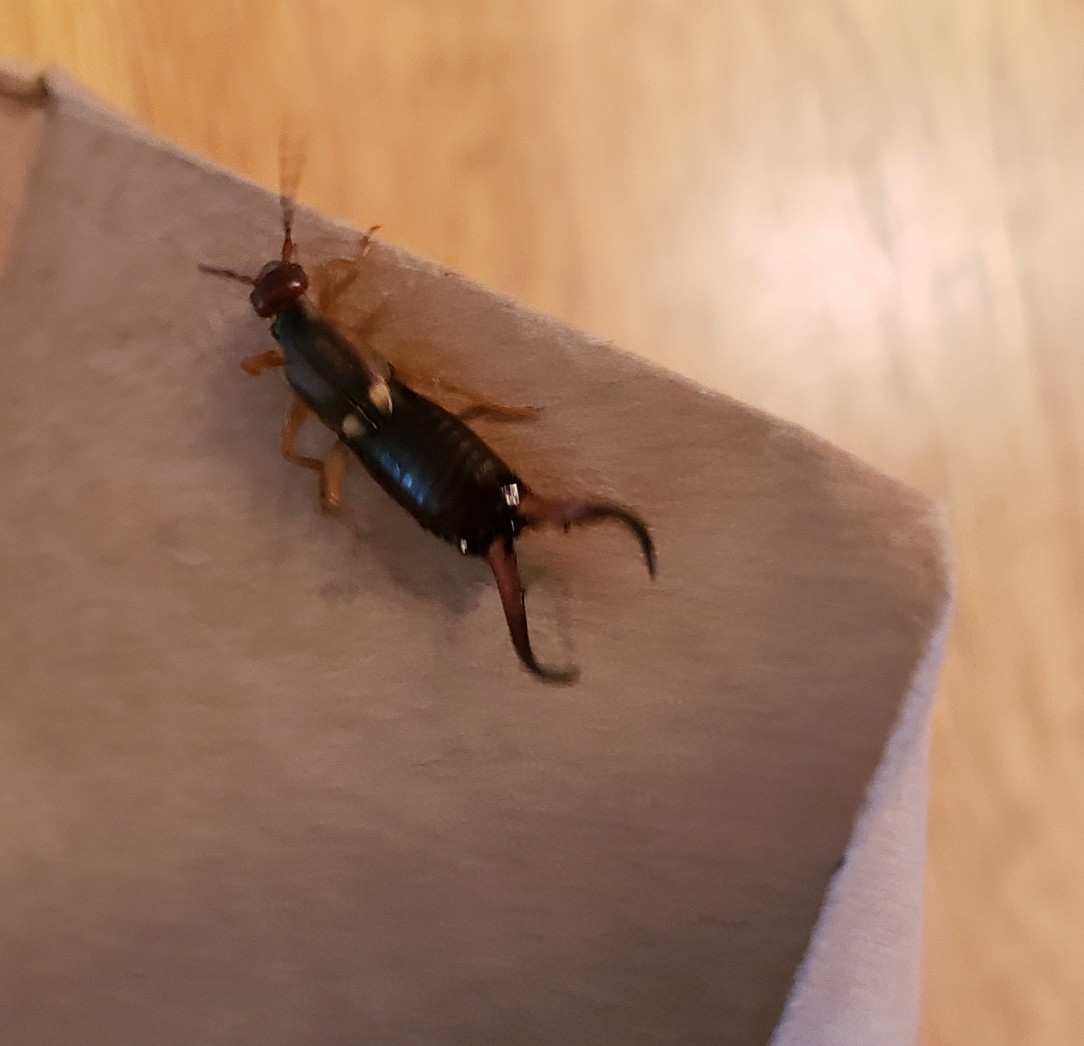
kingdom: Animalia
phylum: Arthropoda
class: Insecta
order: Dermaptera
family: Forficulidae
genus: Forficula
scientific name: Forficula
